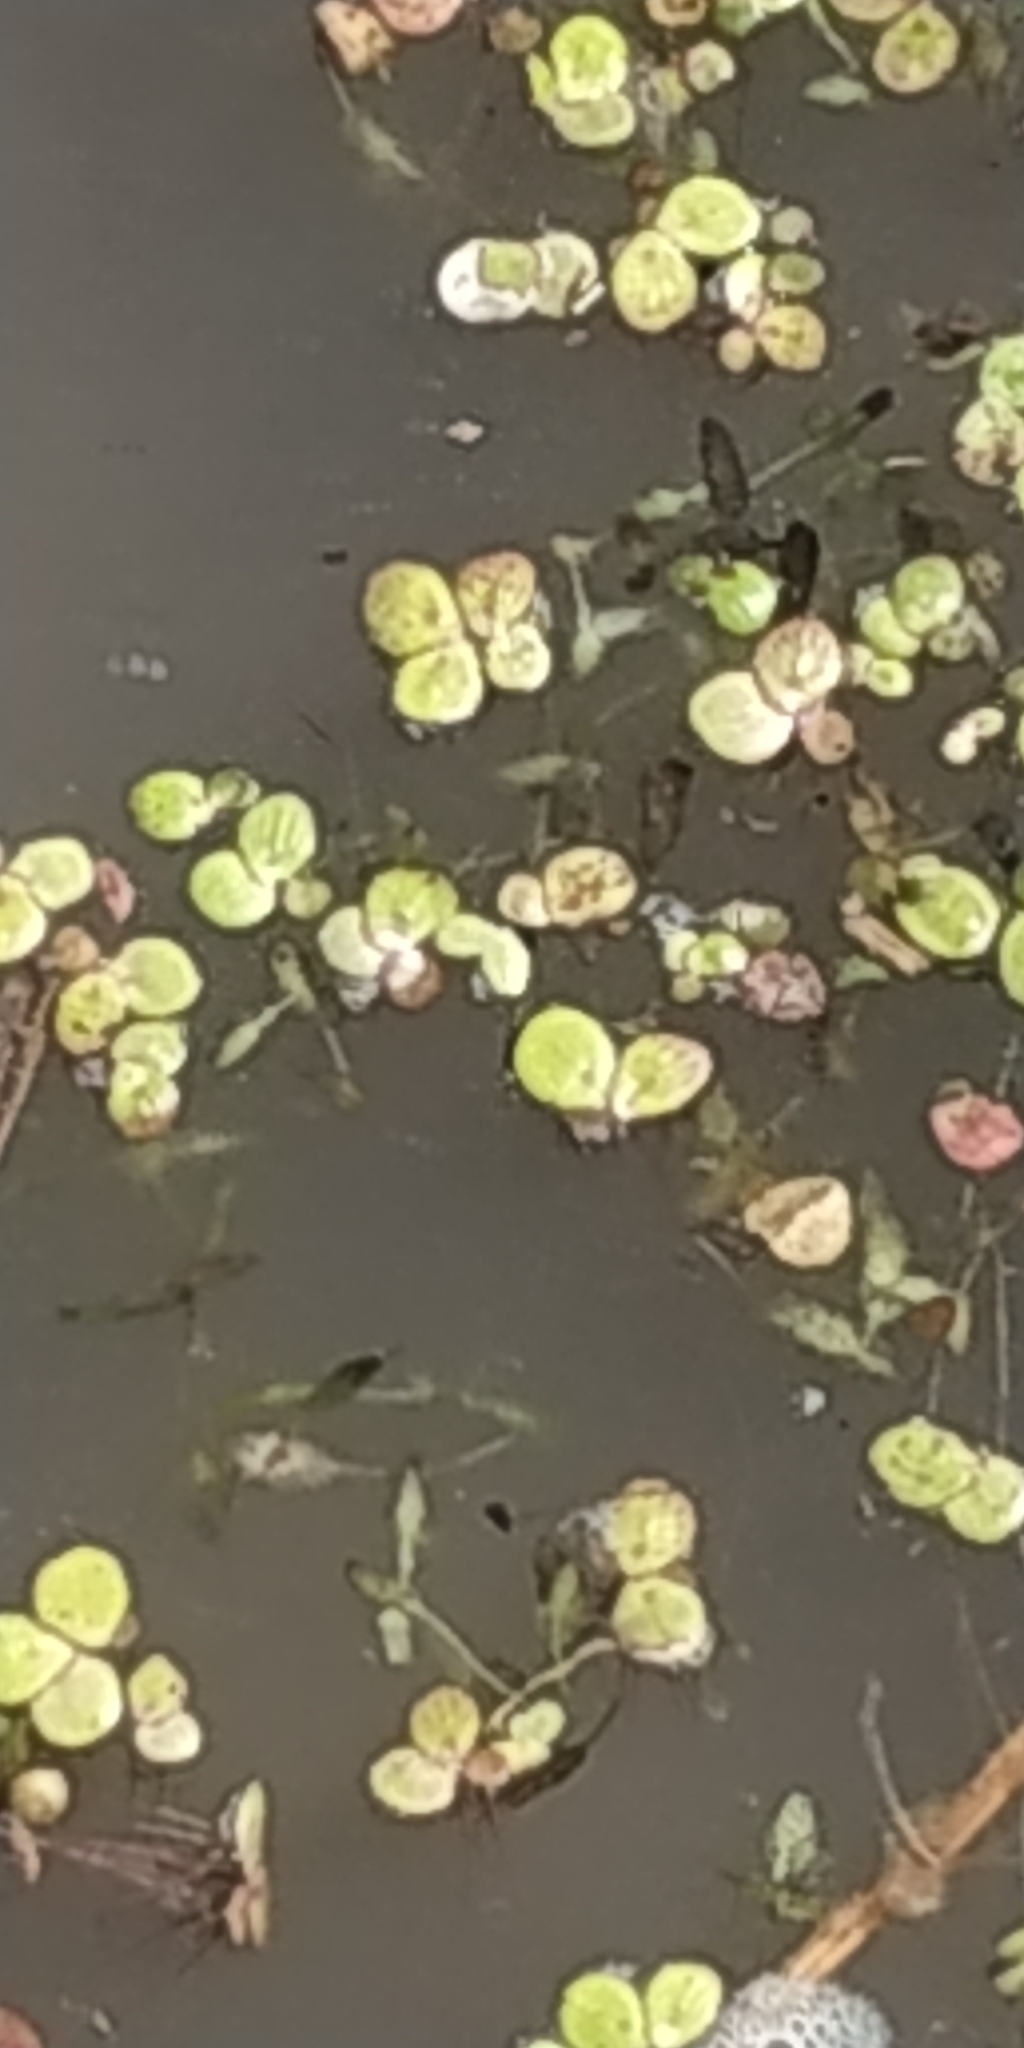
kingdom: Plantae
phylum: Tracheophyta
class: Liliopsida
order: Alismatales
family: Araceae
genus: Spirodela
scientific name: Spirodela polyrhiza
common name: Great duckweed
